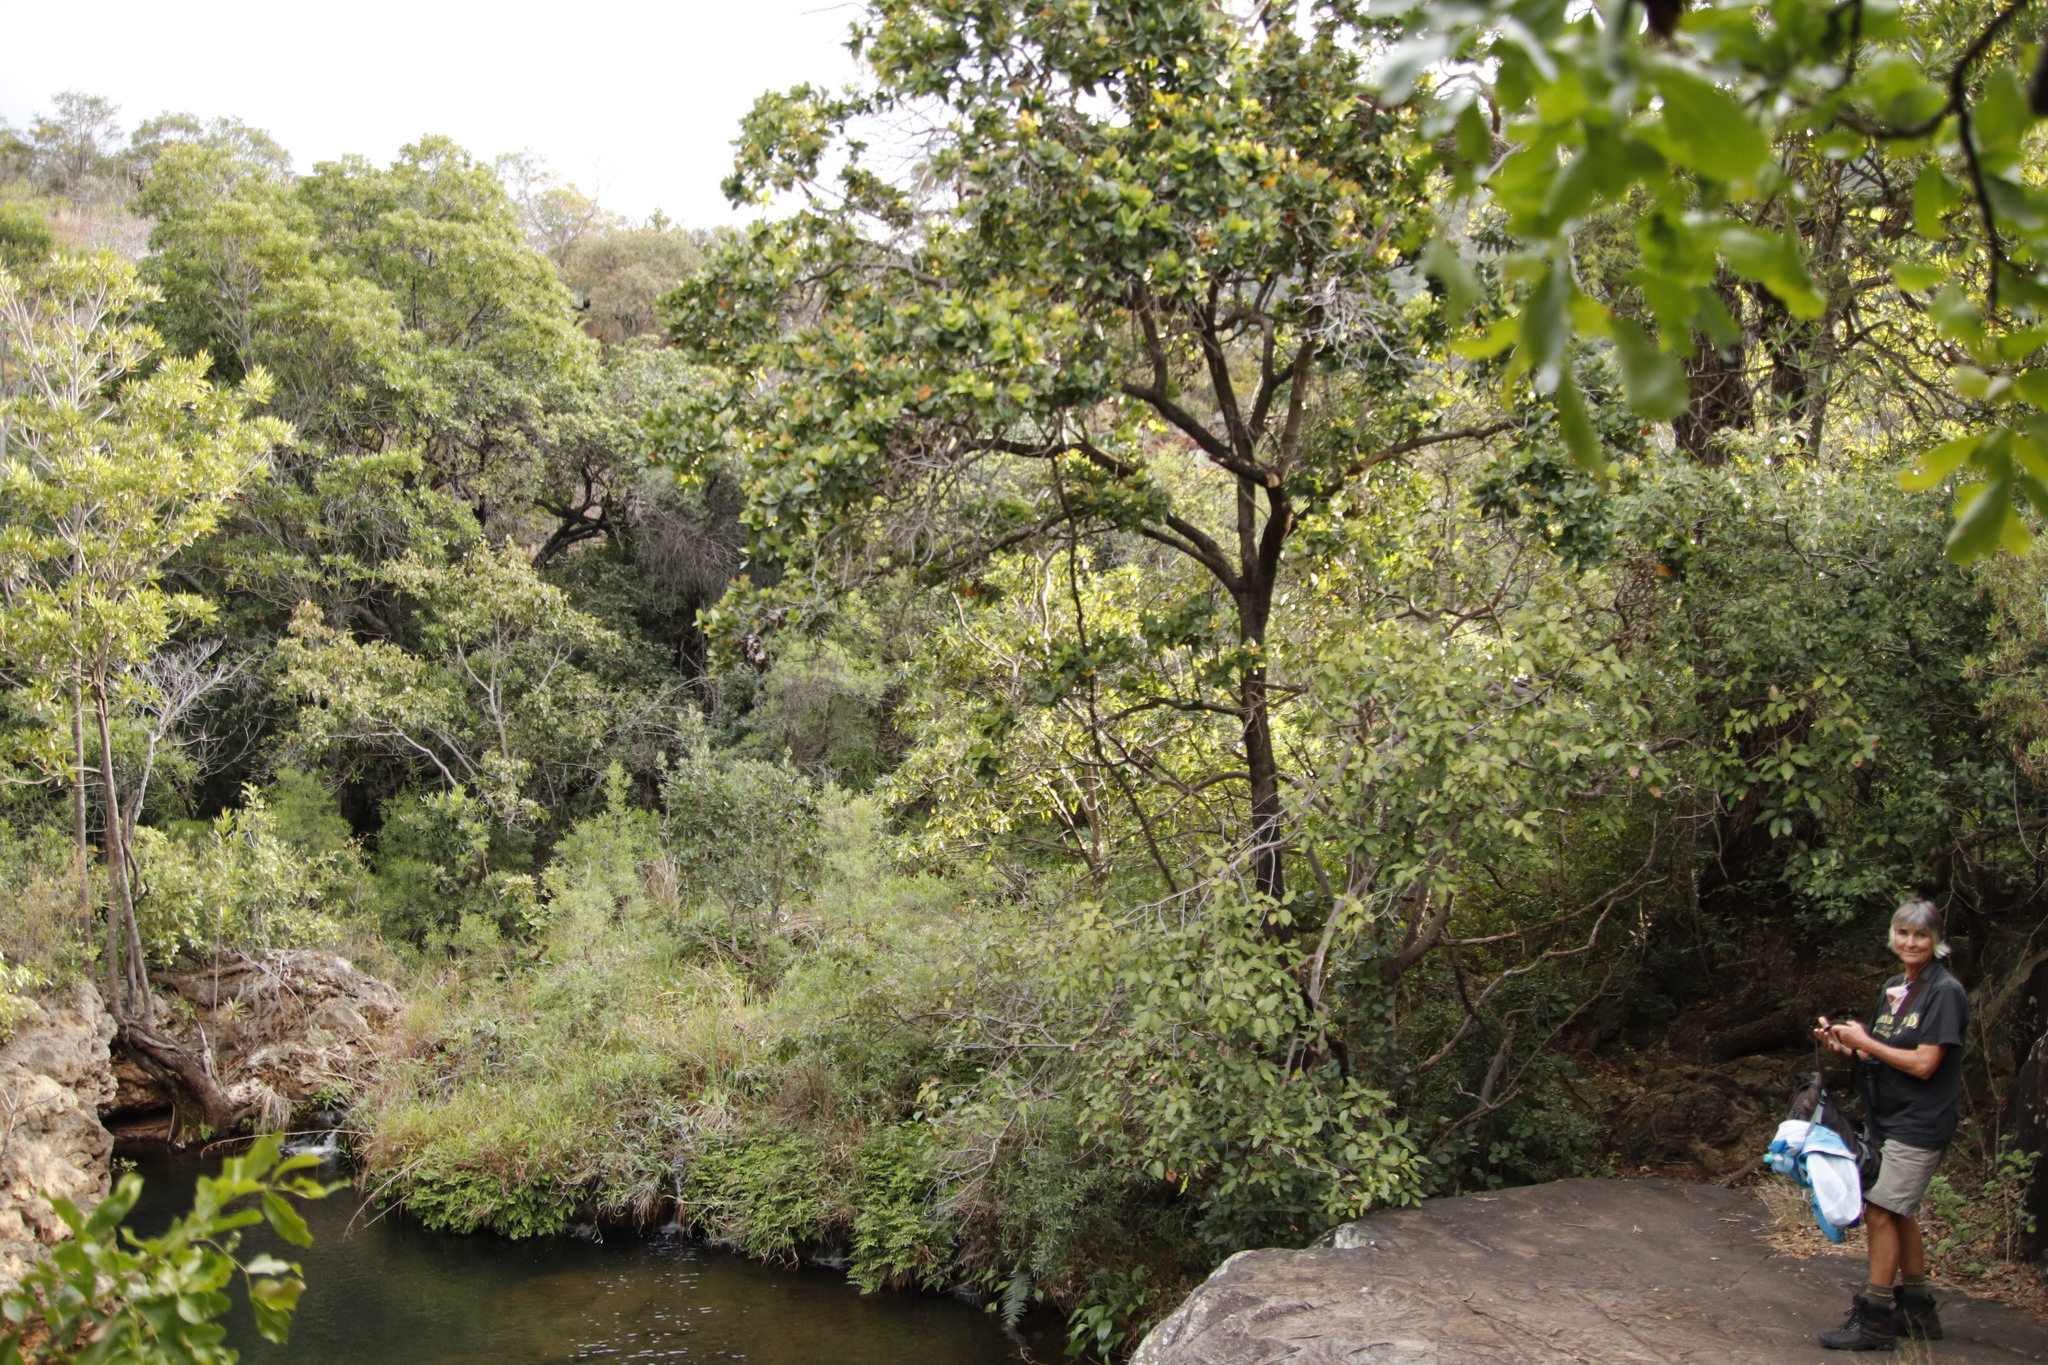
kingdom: Plantae
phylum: Tracheophyta
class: Magnoliopsida
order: Myrtales
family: Myrtaceae
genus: Syzygium
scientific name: Syzygium cordatum
